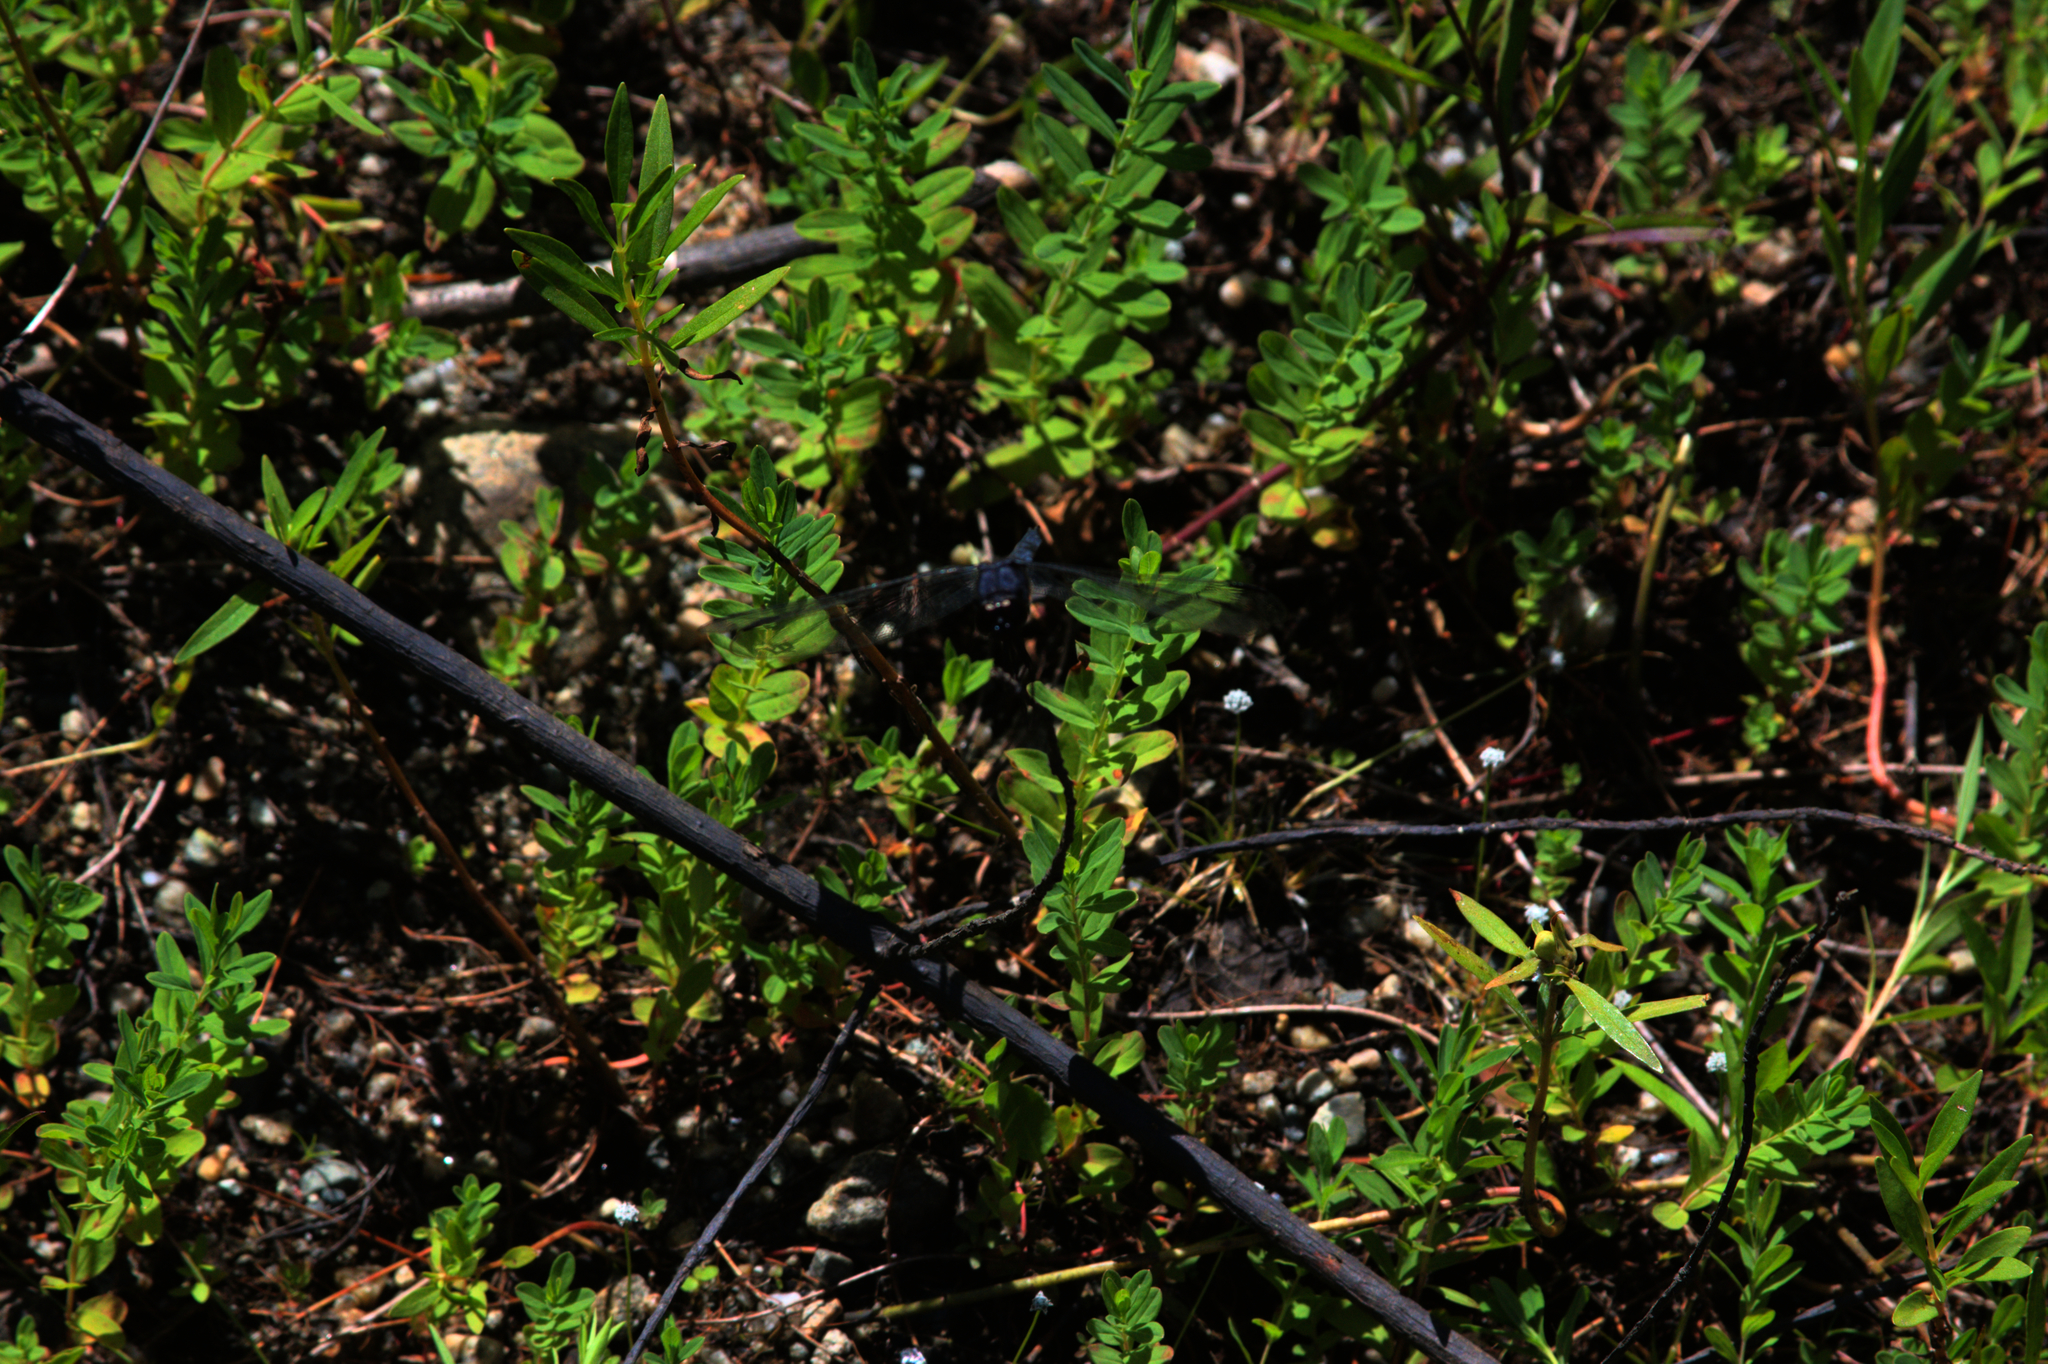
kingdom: Animalia
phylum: Arthropoda
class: Insecta
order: Odonata
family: Libellulidae
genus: Libellula
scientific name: Libellula incesta
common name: Slaty skimmer
